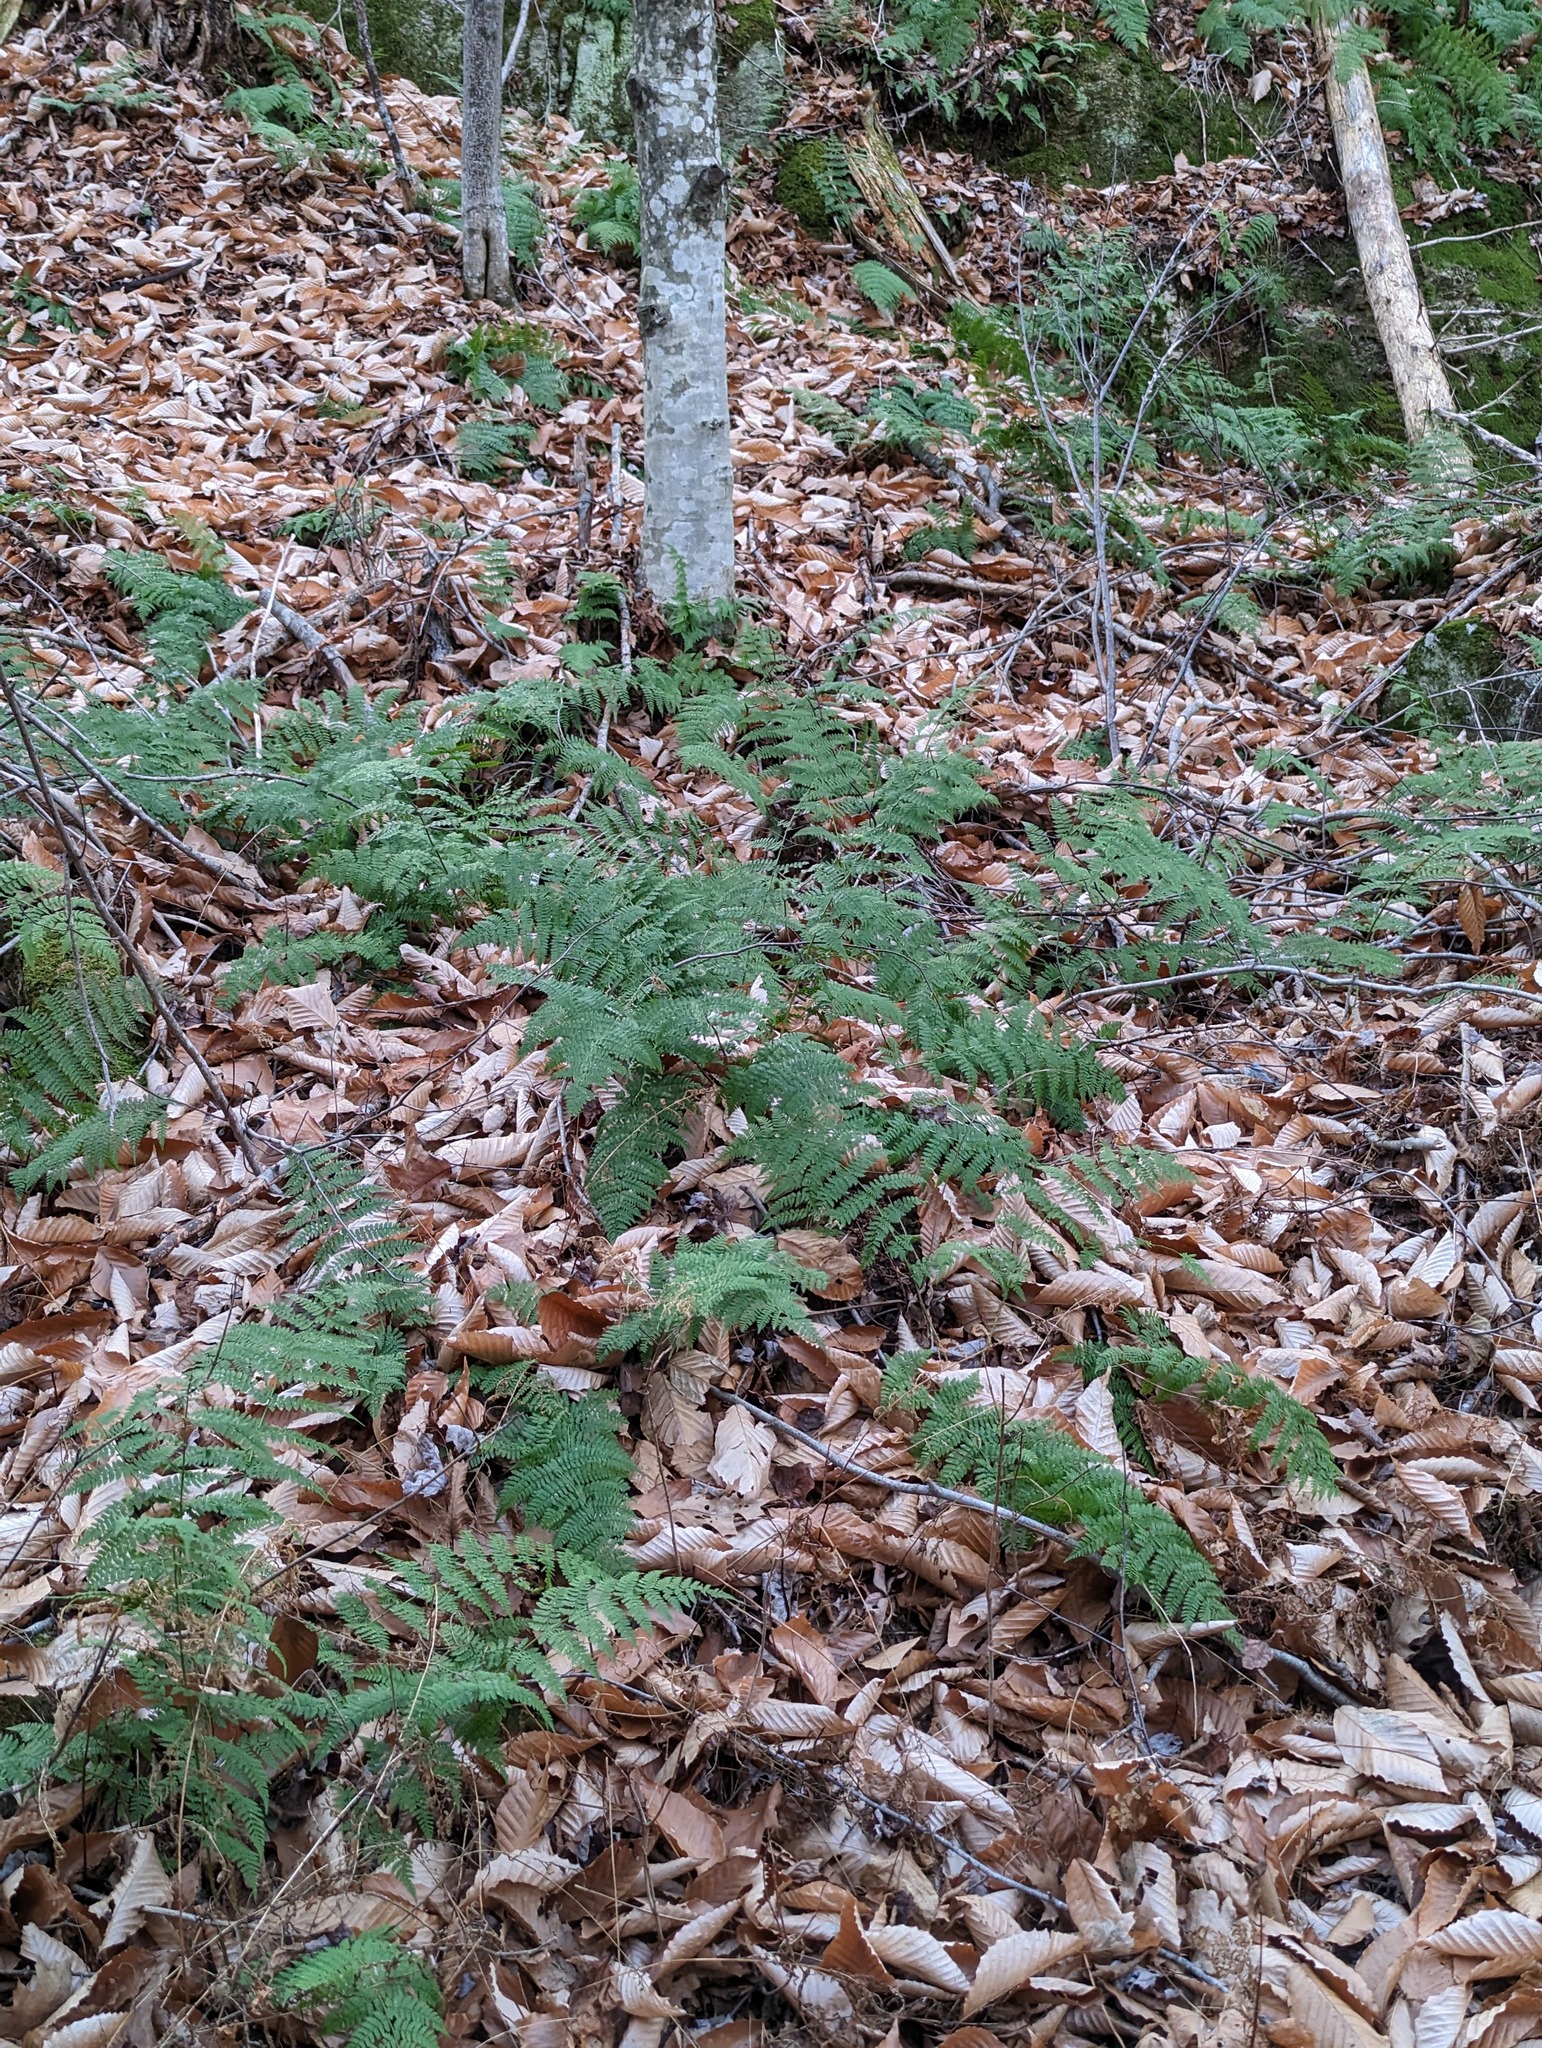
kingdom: Plantae
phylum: Tracheophyta
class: Polypodiopsida
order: Polypodiales
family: Dryopteridaceae
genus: Dryopteris
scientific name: Dryopteris intermedia
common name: Evergreen wood fern
